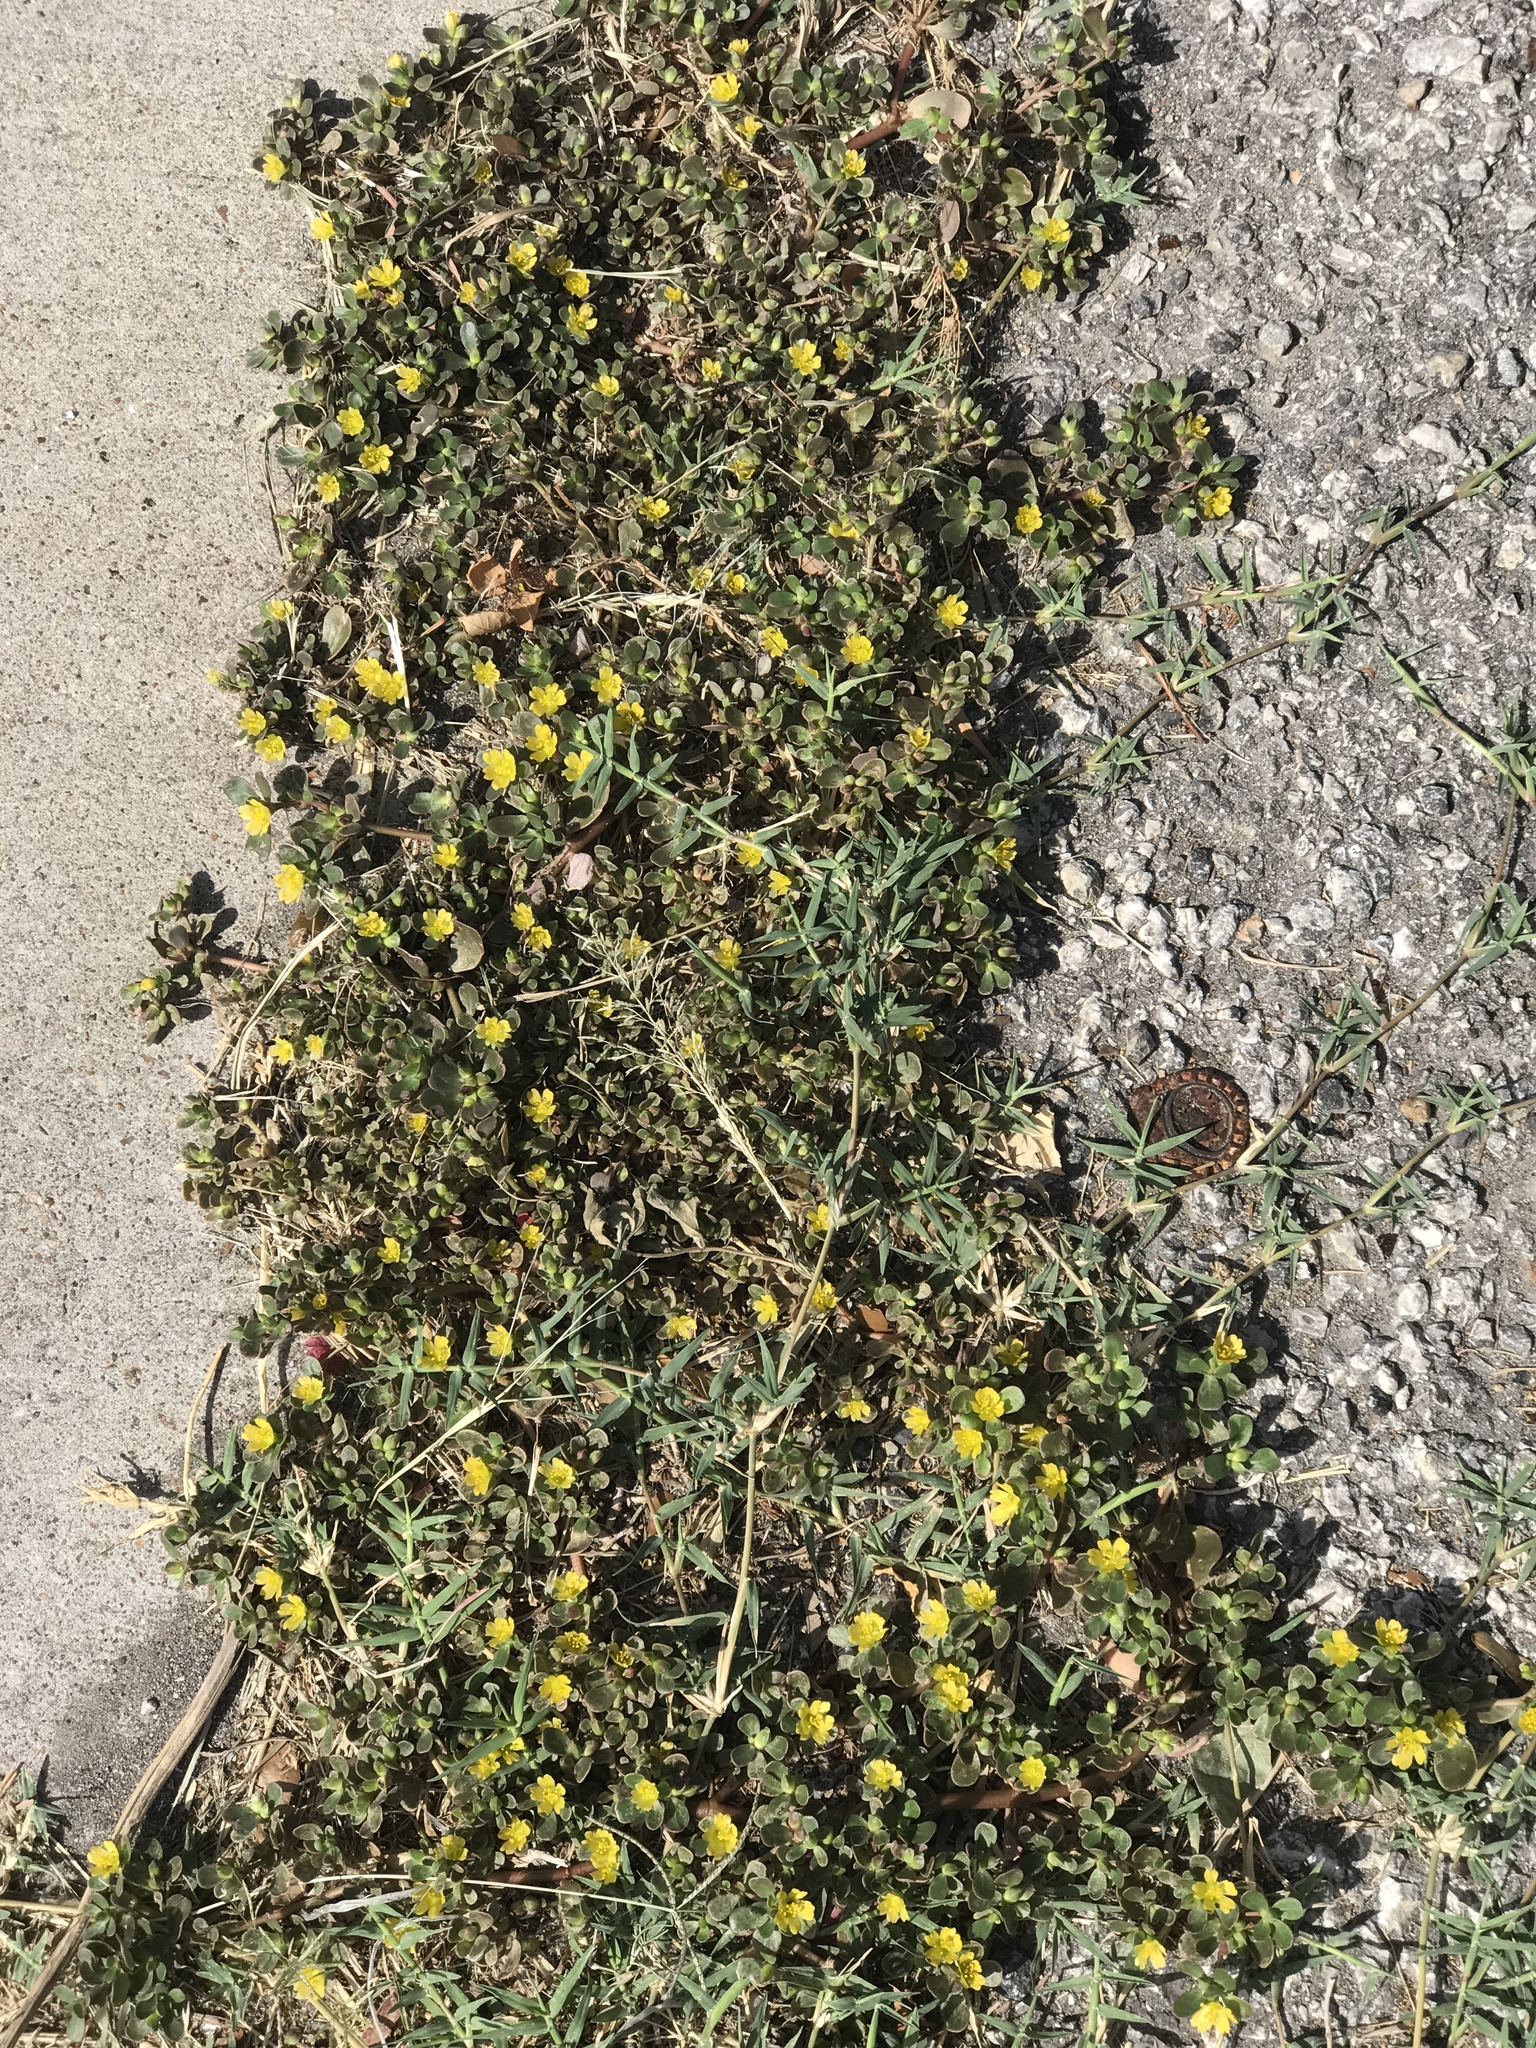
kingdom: Plantae
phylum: Tracheophyta
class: Magnoliopsida
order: Caryophyllales
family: Portulacaceae
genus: Portulaca
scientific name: Portulaca oleracea
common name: Common purslane
